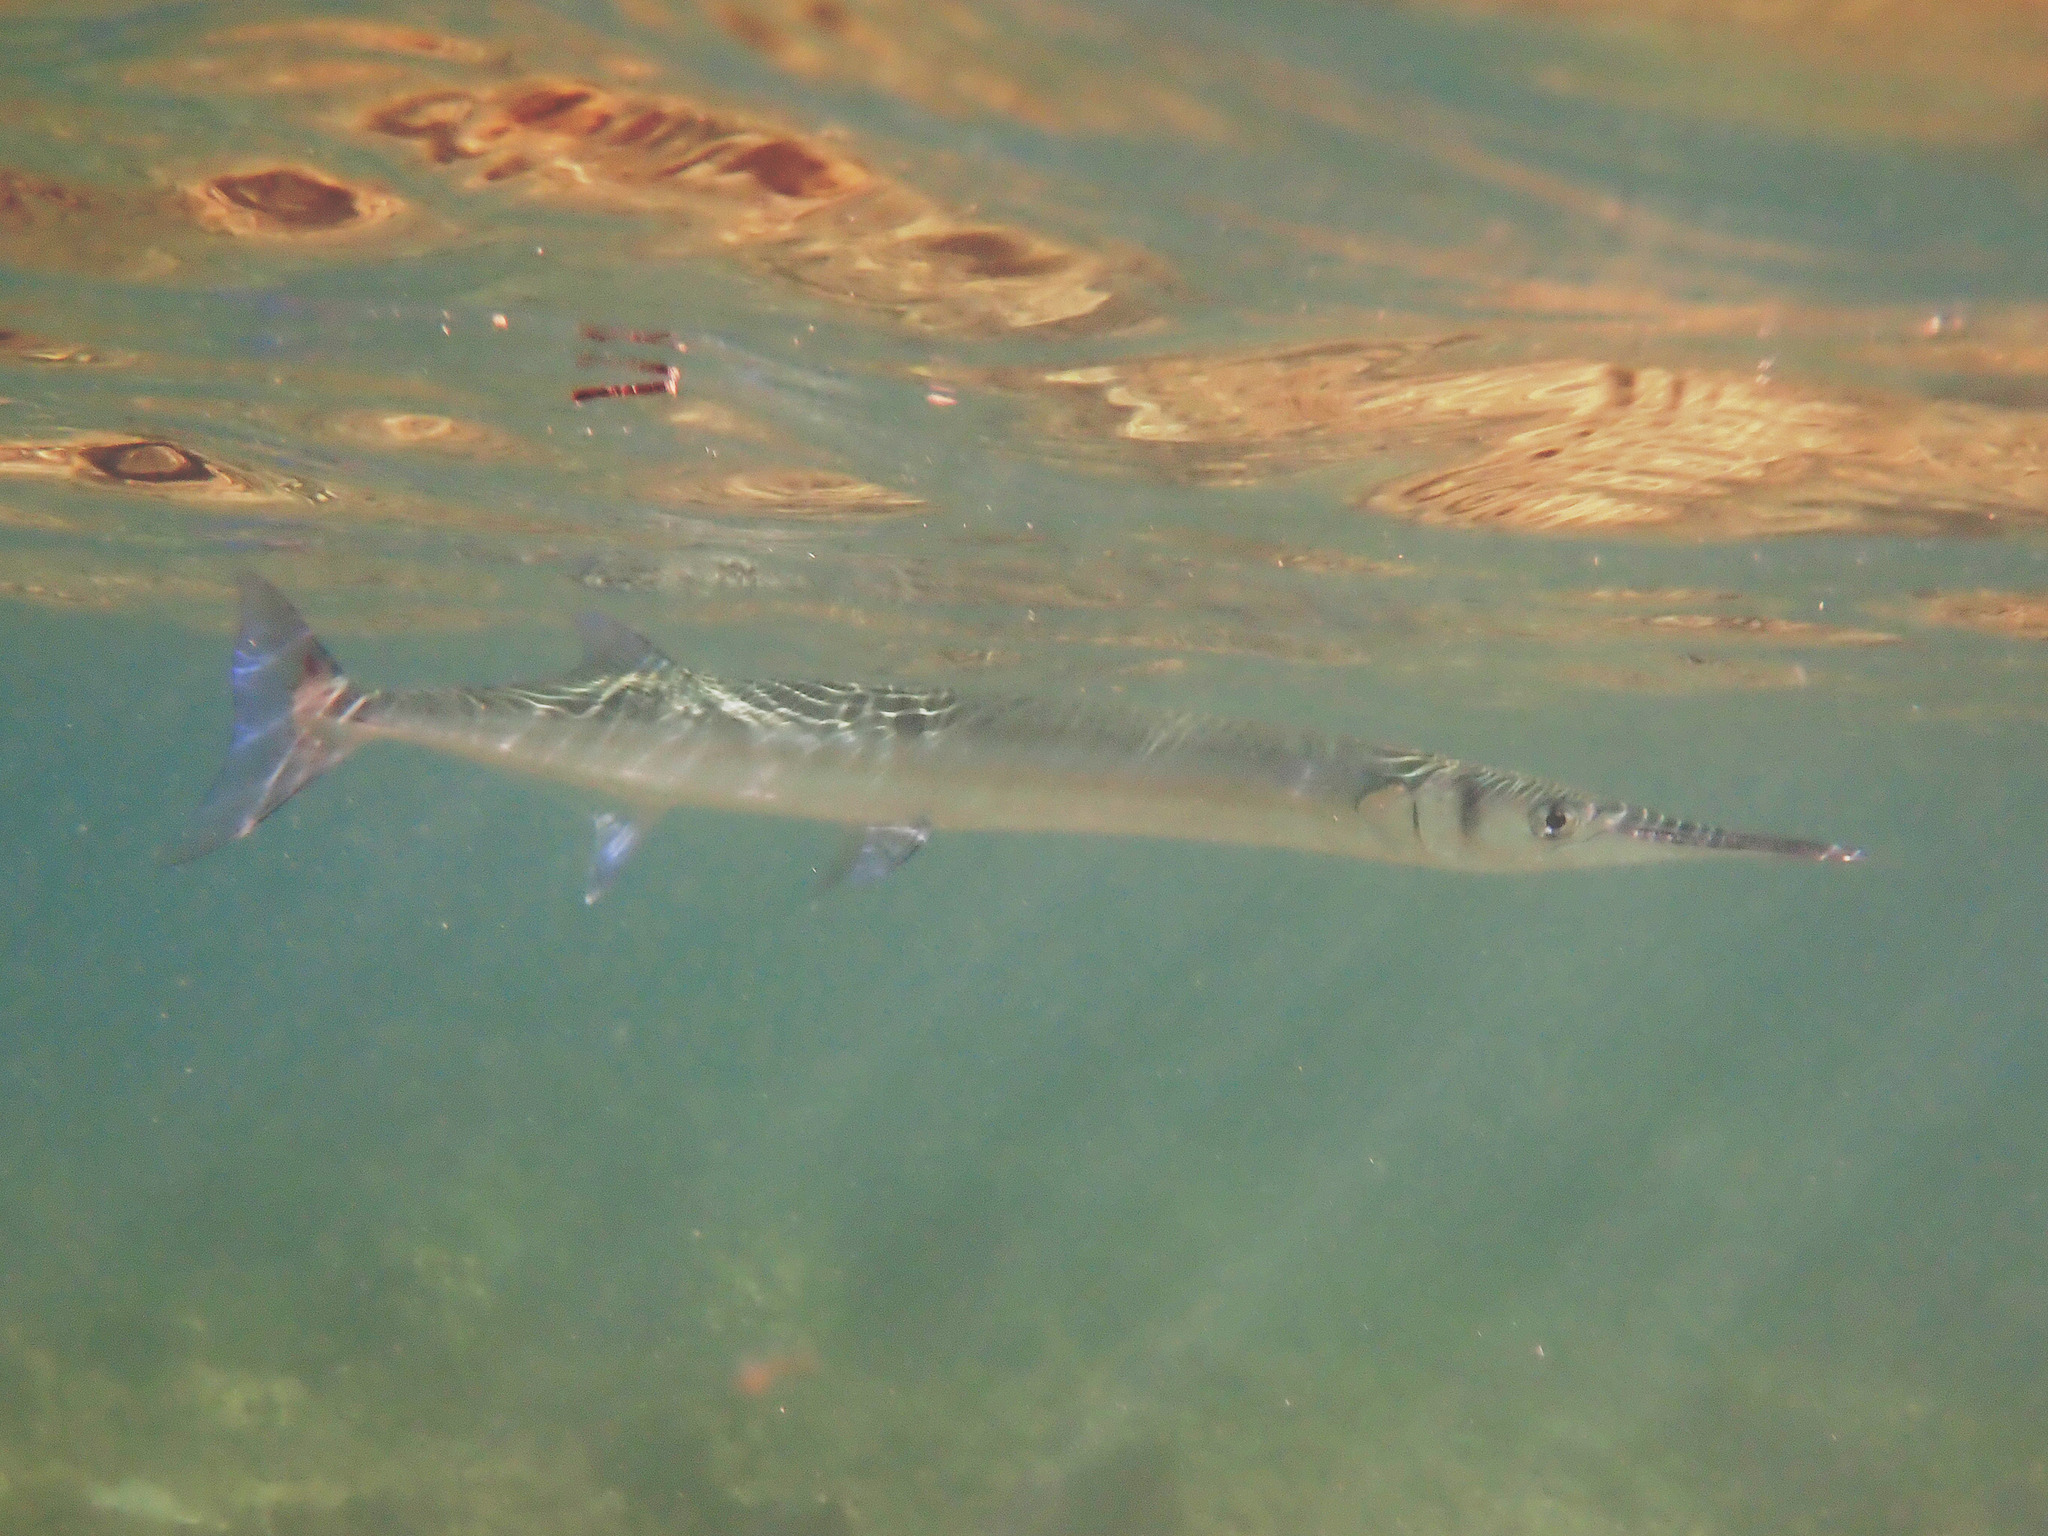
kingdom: Animalia
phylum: Chordata
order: Beloniformes
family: Belonidae
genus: Tylosurus
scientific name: Tylosurus crocodilus
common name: Houndfish
